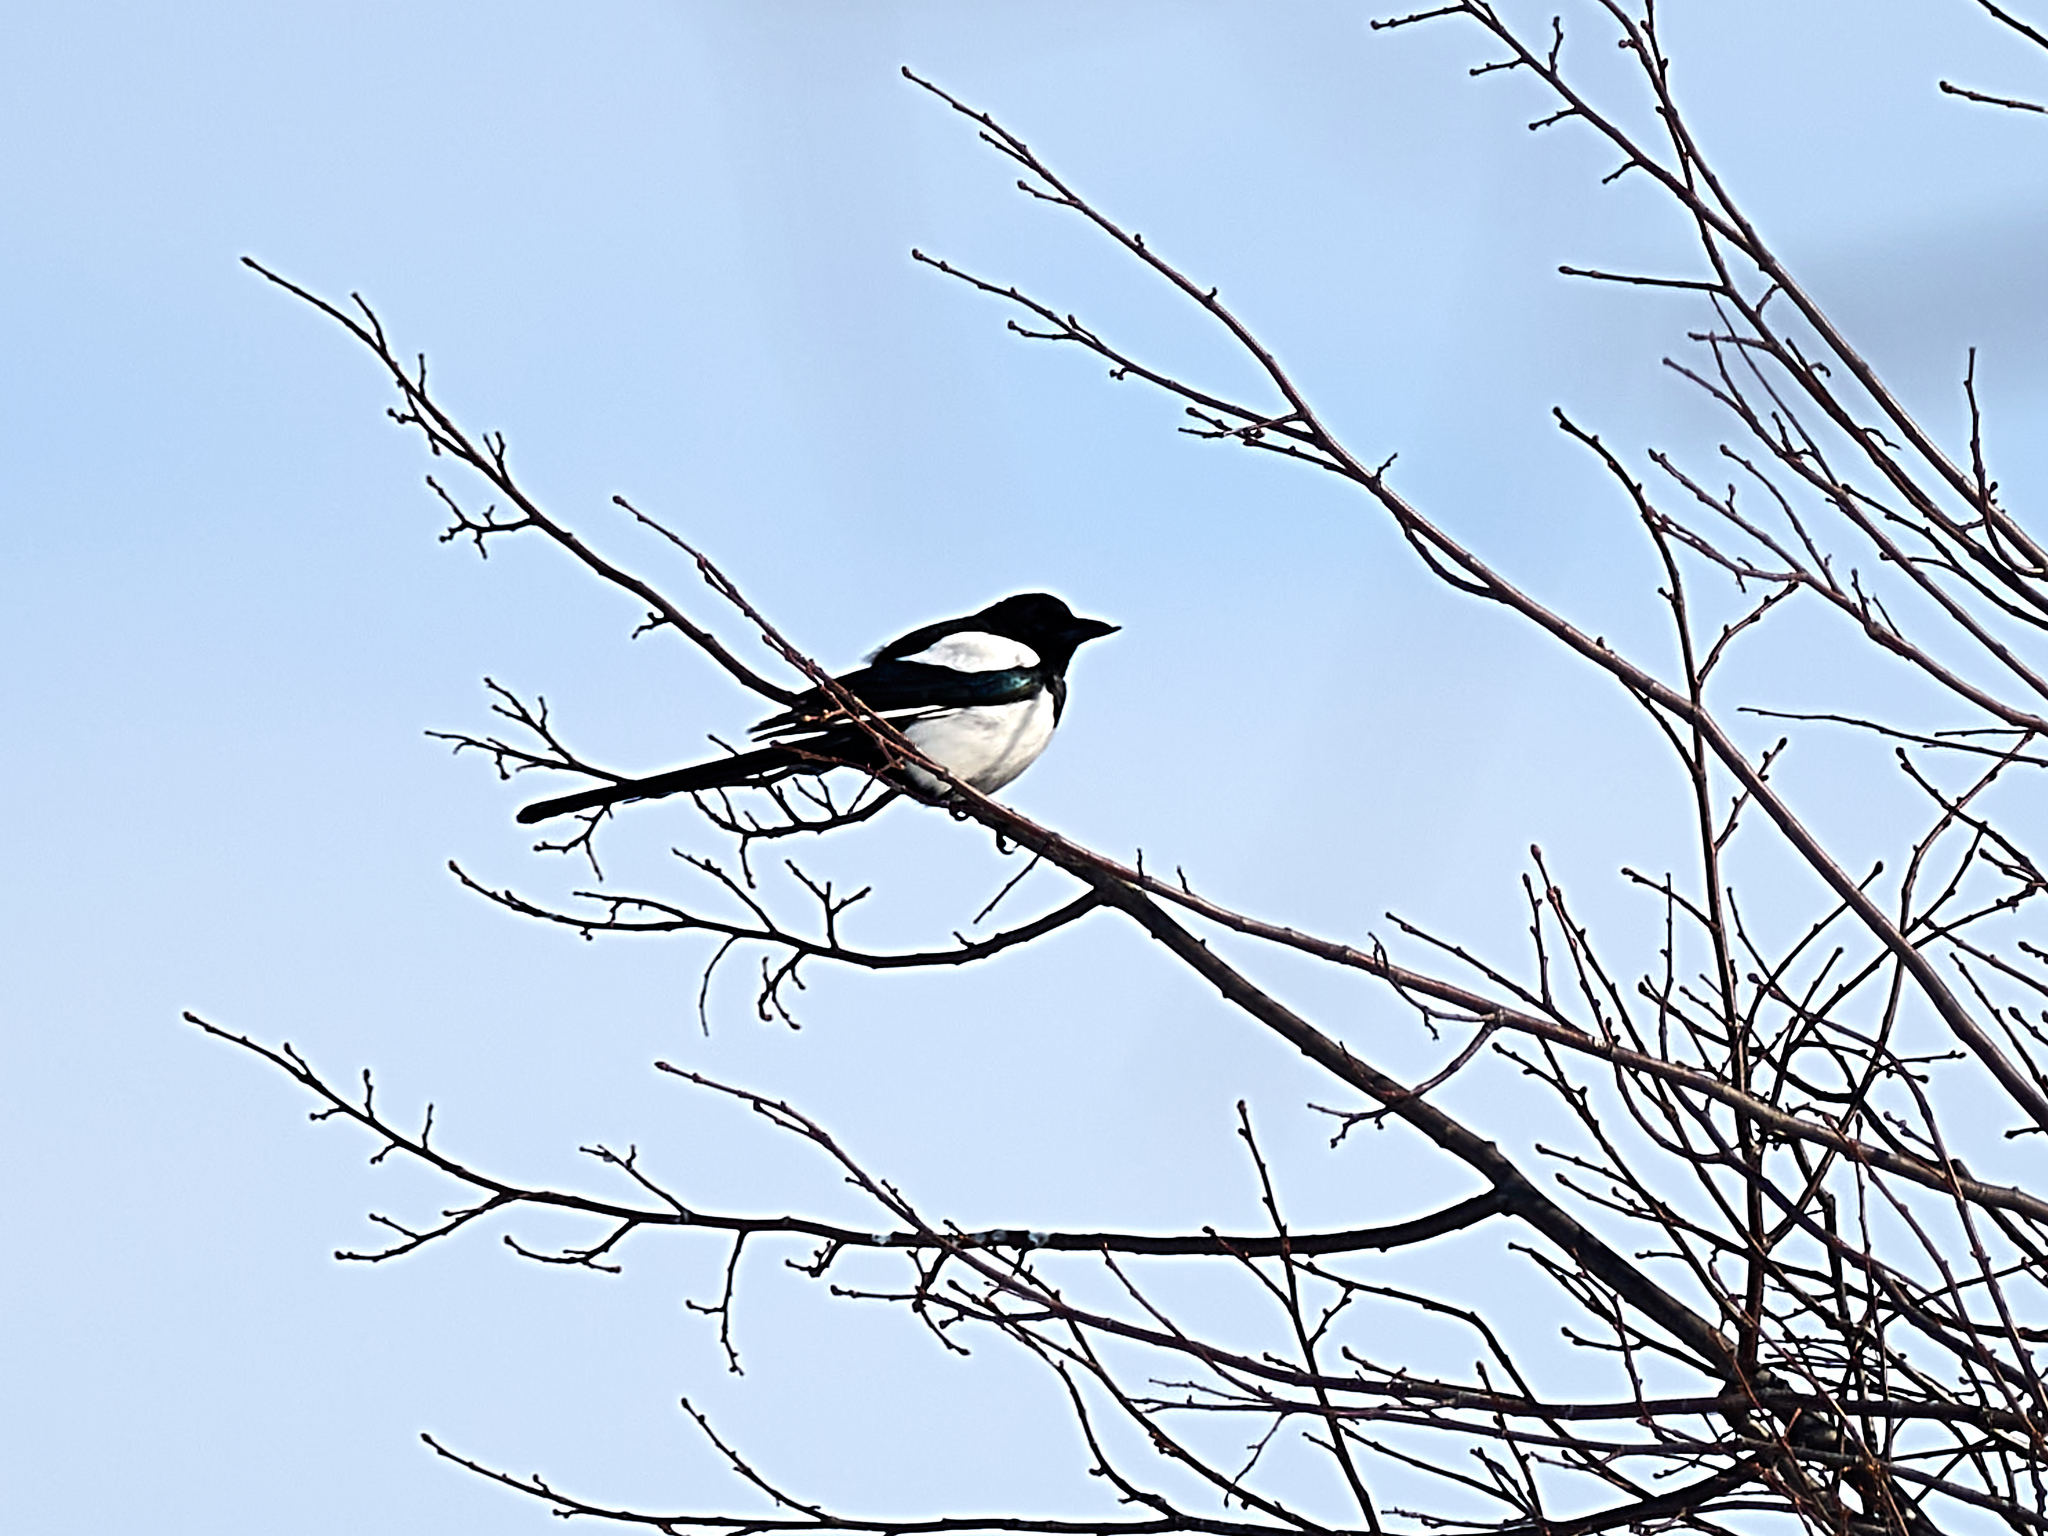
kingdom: Animalia
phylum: Chordata
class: Aves
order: Passeriformes
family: Corvidae
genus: Pica
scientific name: Pica pica
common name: Eurasian magpie
